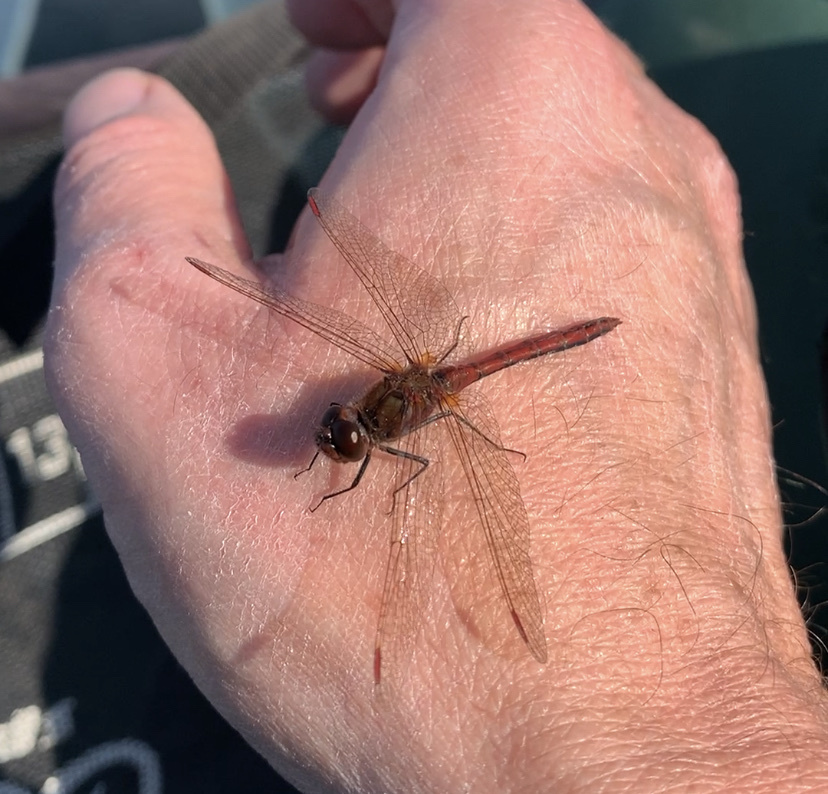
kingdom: Animalia
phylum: Arthropoda
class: Insecta
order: Odonata
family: Libellulidae
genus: Sympetrum
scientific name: Sympetrum costiferum
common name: Saffron-winged meadowhawk
